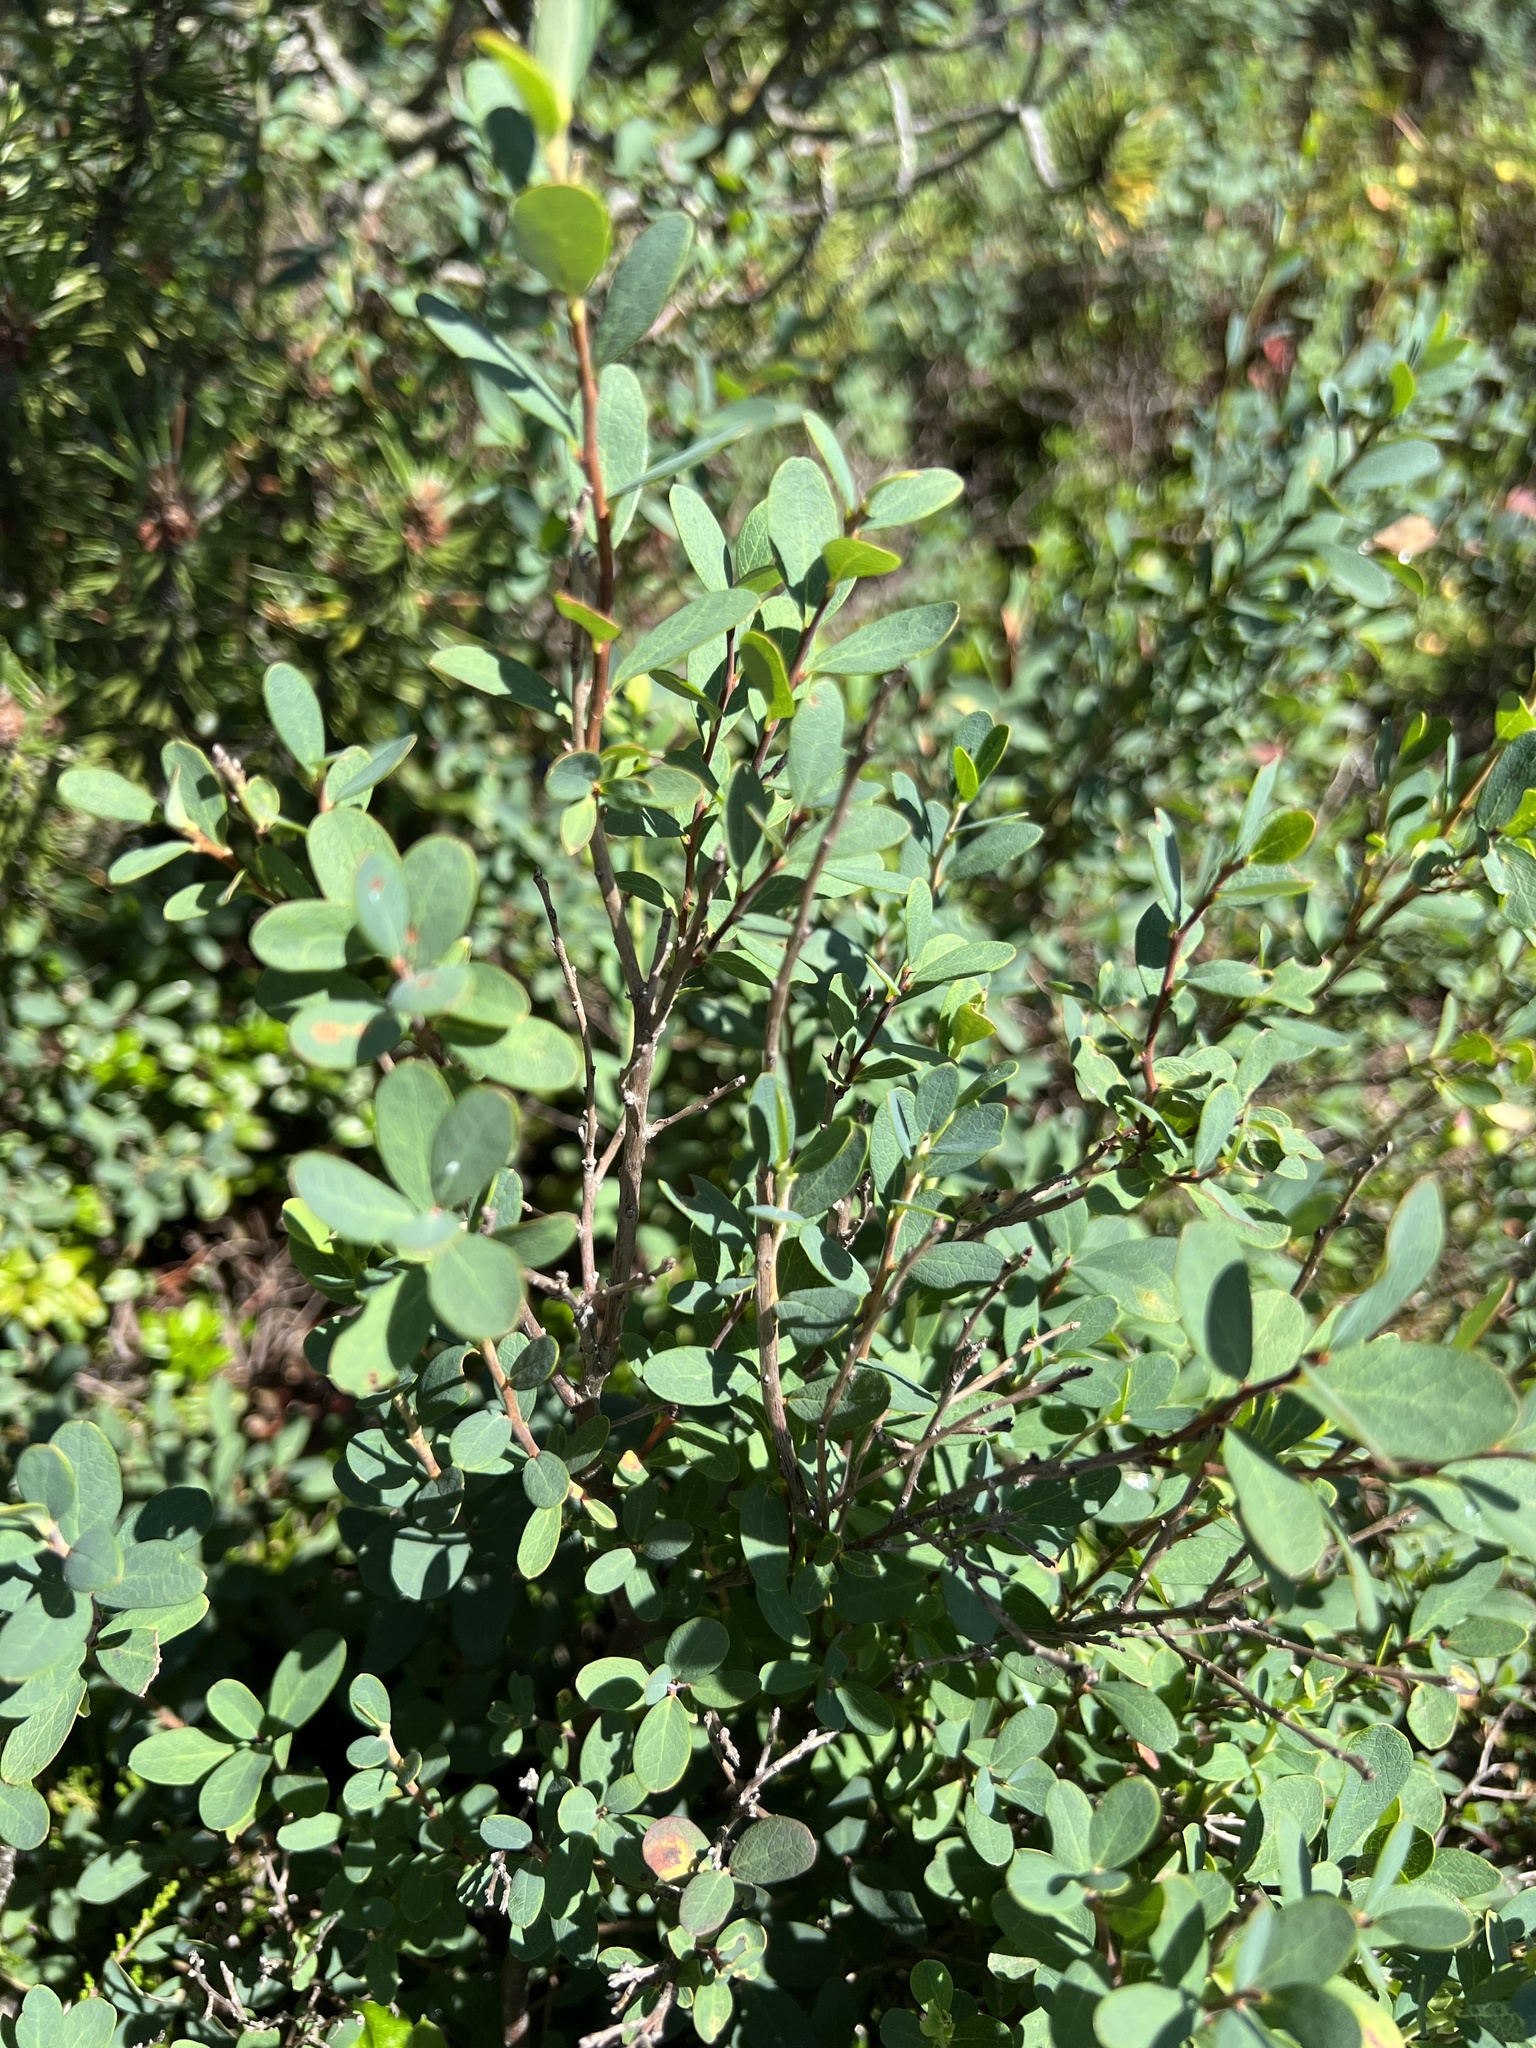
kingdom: Plantae
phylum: Tracheophyta
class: Magnoliopsida
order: Ericales
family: Ericaceae
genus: Vaccinium
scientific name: Vaccinium uliginosum
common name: Bog bilberry
